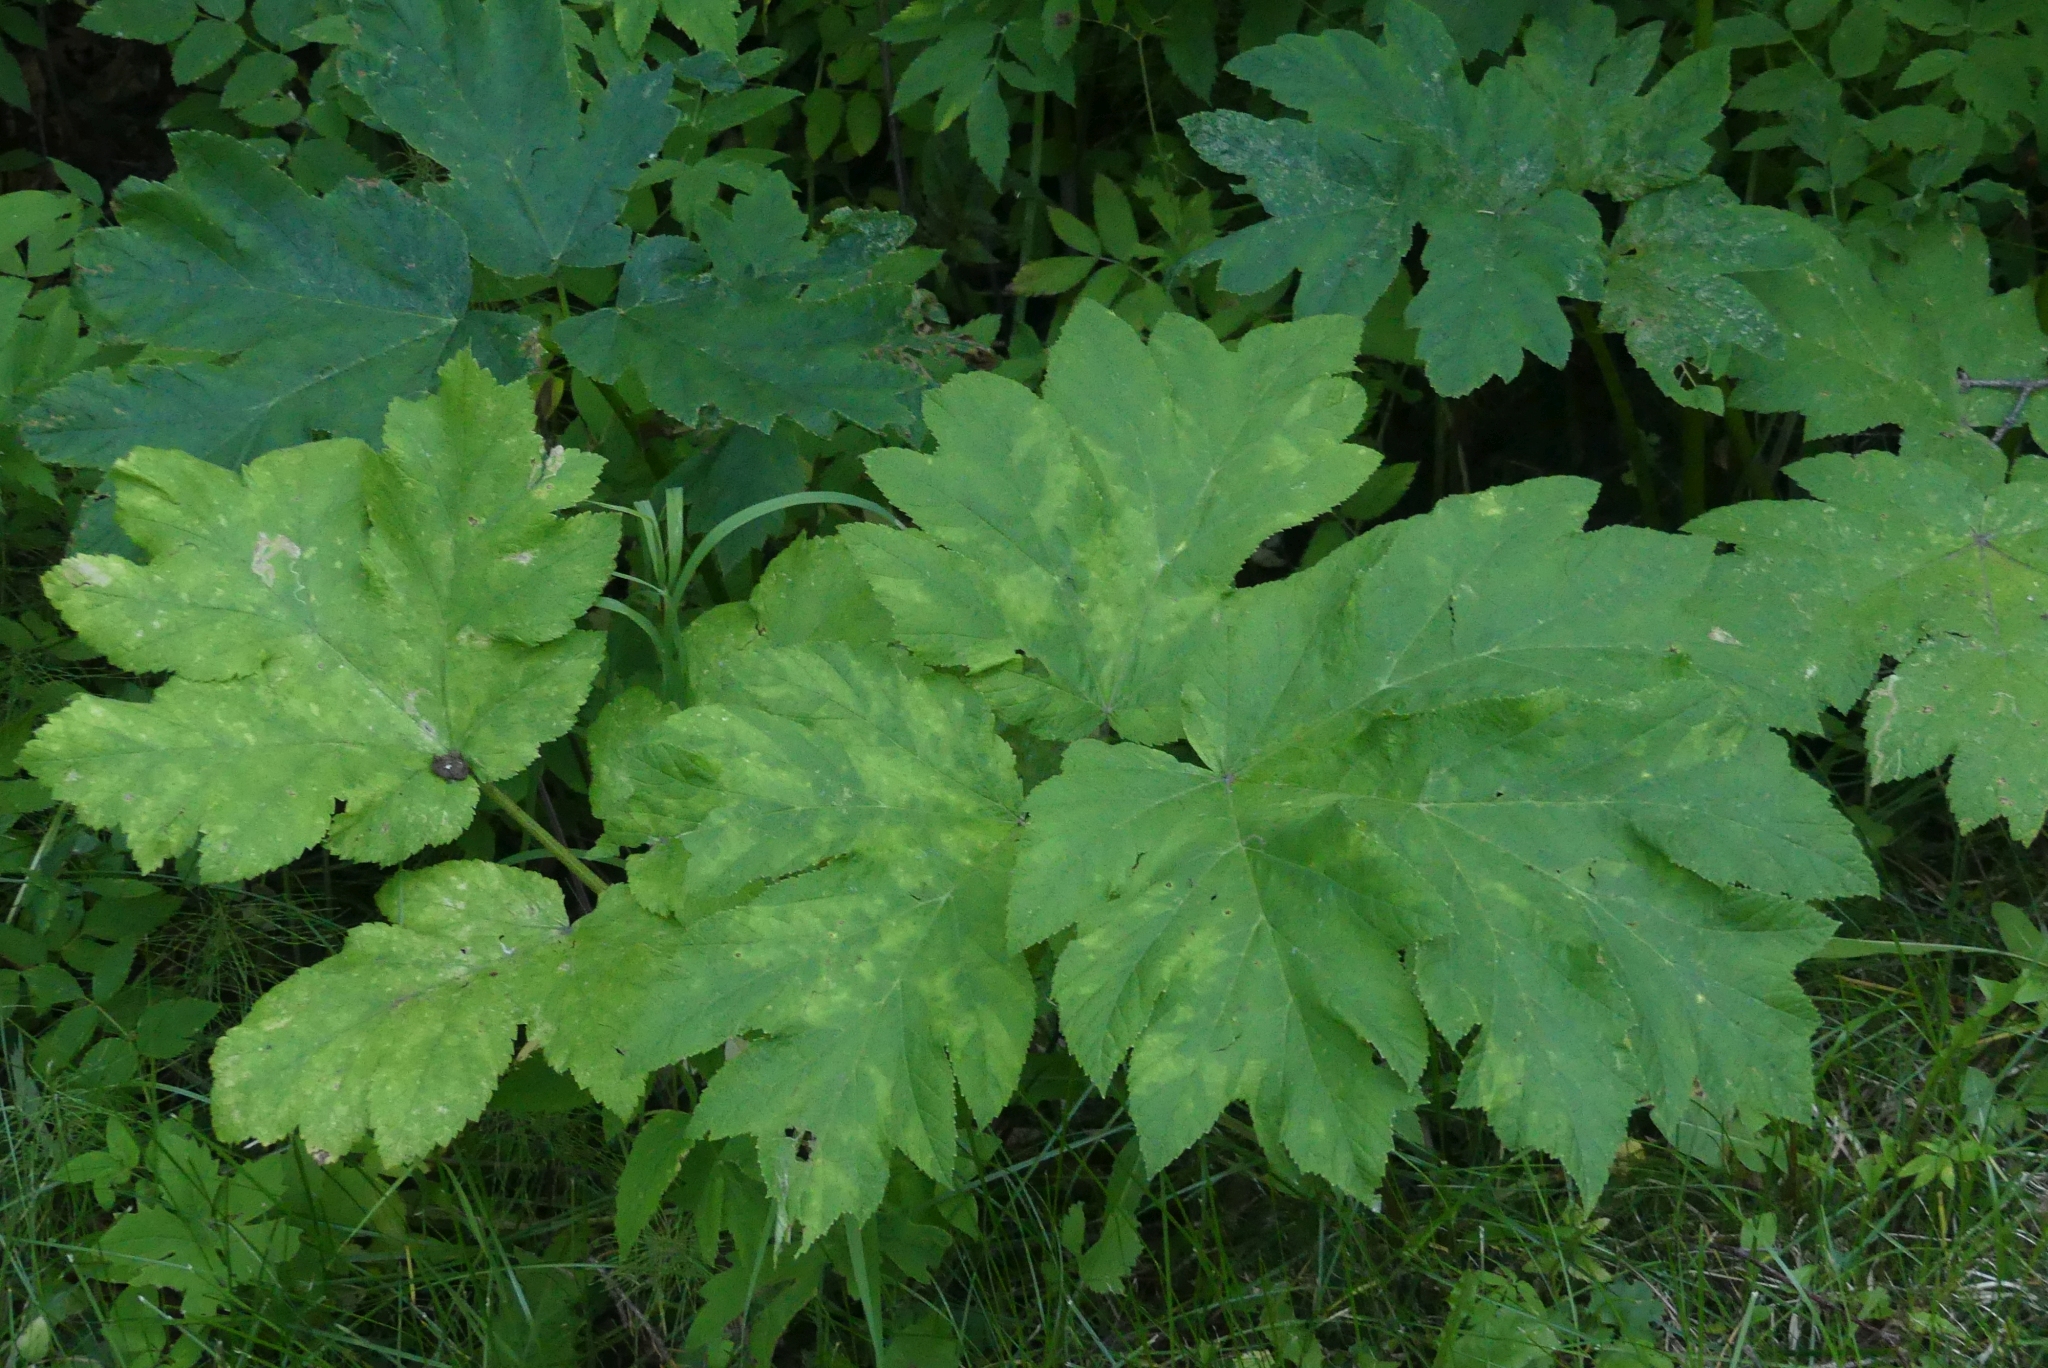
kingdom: Plantae
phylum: Tracheophyta
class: Magnoliopsida
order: Apiales
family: Apiaceae
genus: Heracleum
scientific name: Heracleum maximum
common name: American cow parsnip
